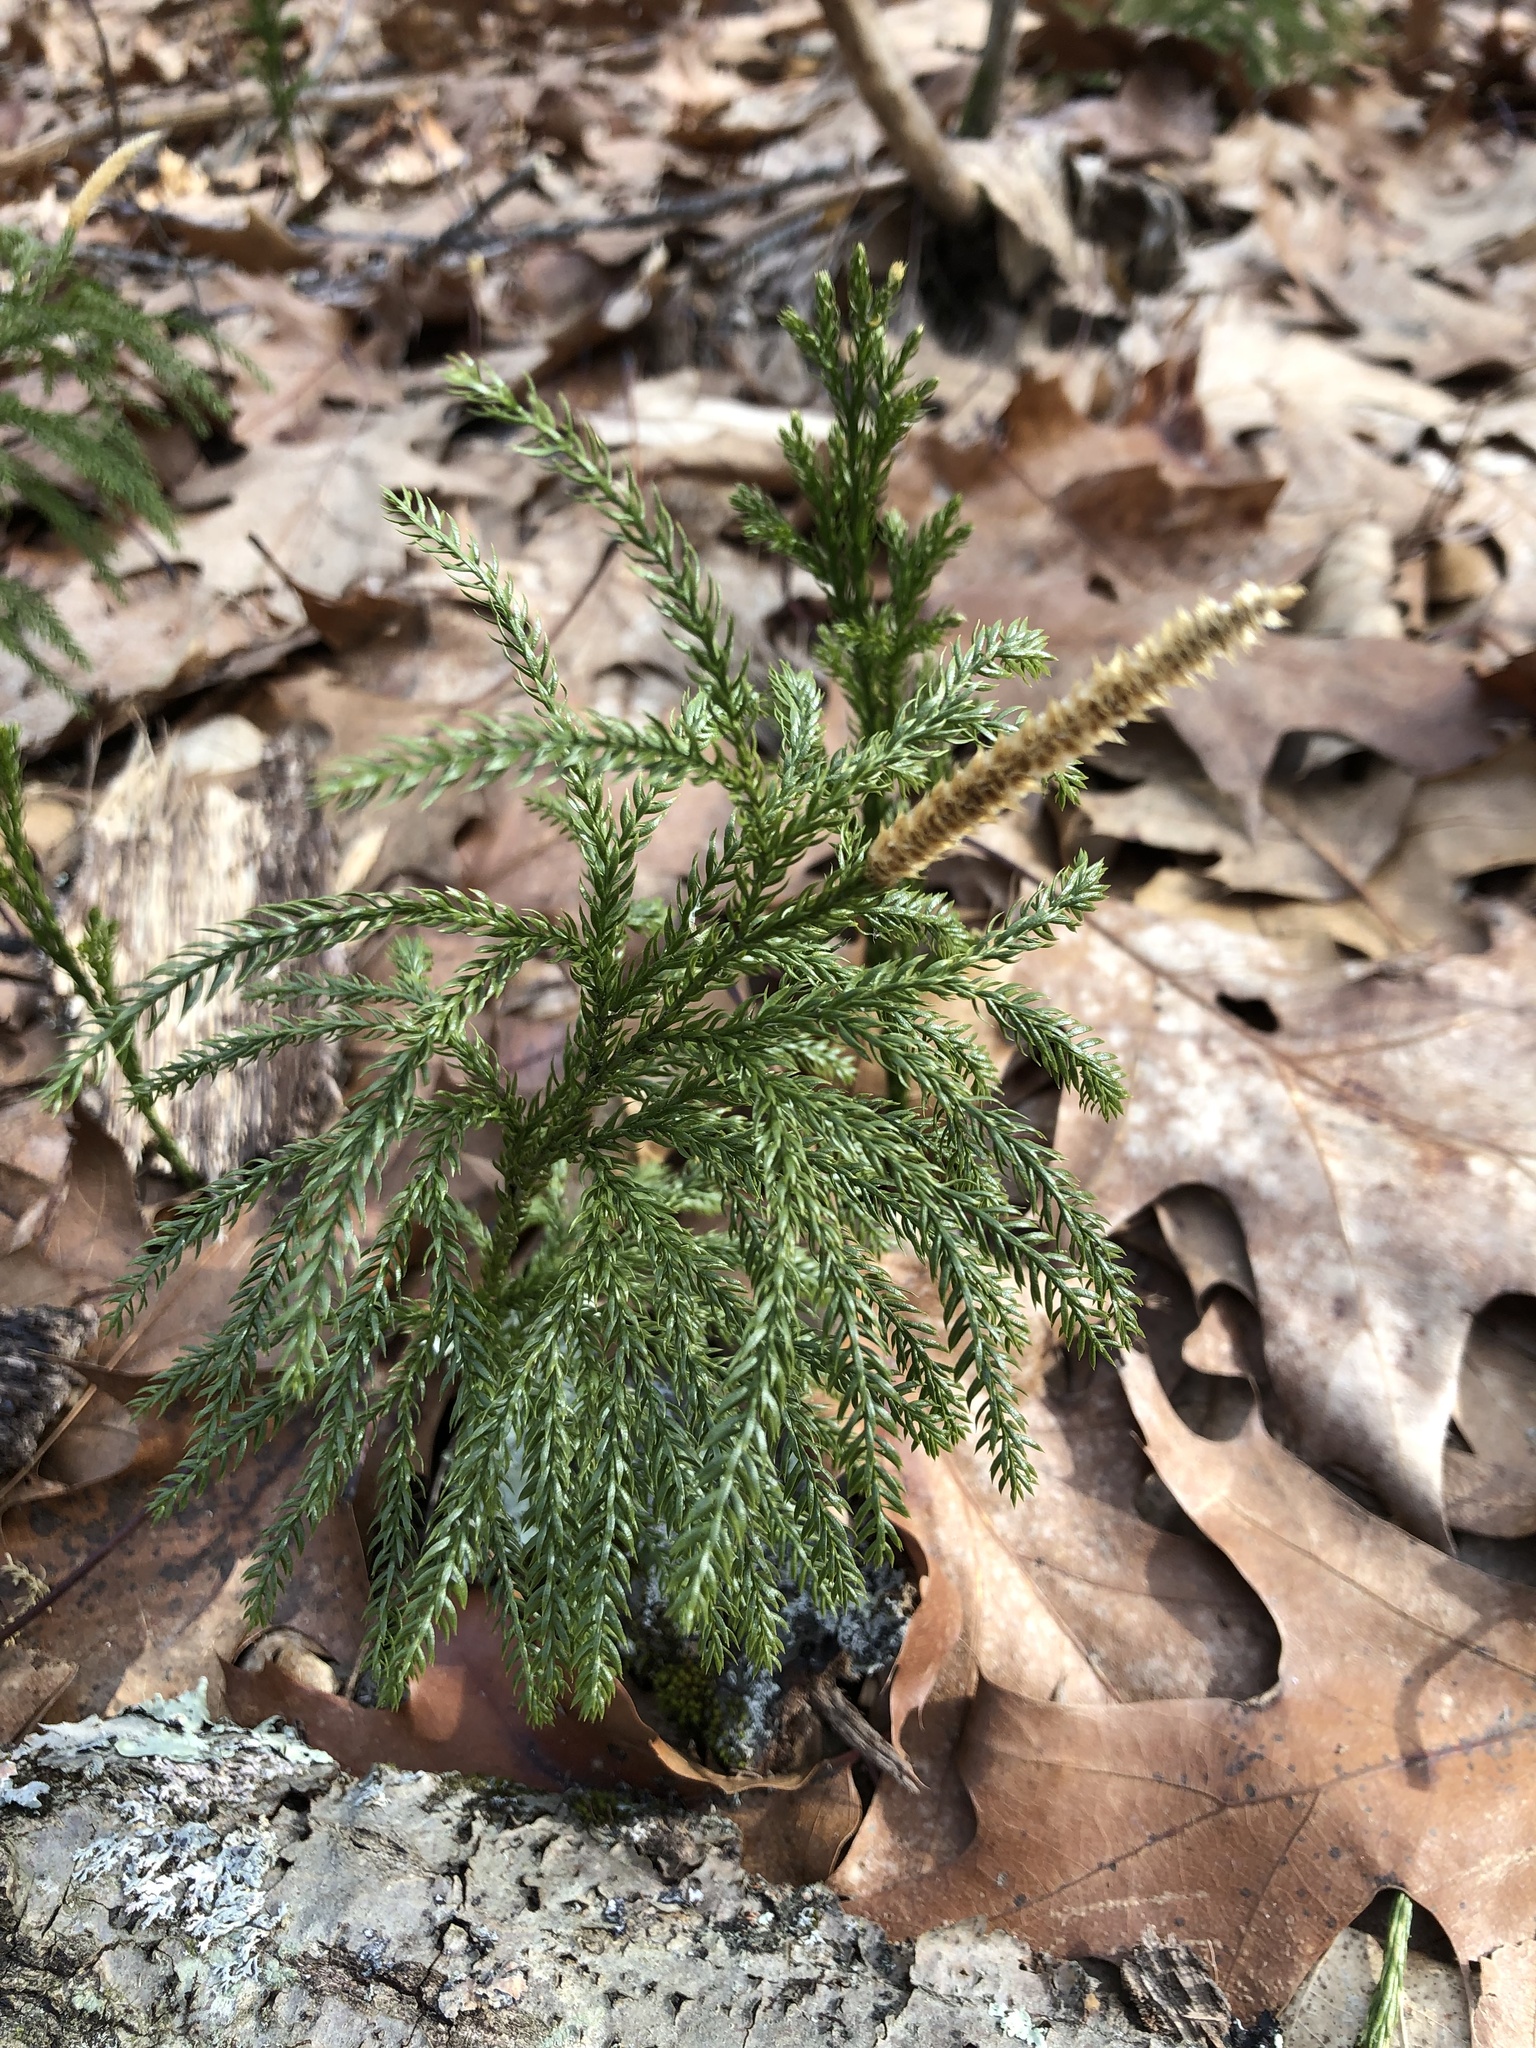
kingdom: Plantae
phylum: Tracheophyta
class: Lycopodiopsida
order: Lycopodiales
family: Lycopodiaceae
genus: Dendrolycopodium
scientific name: Dendrolycopodium hickeyi
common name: Hickey's clubmoss
